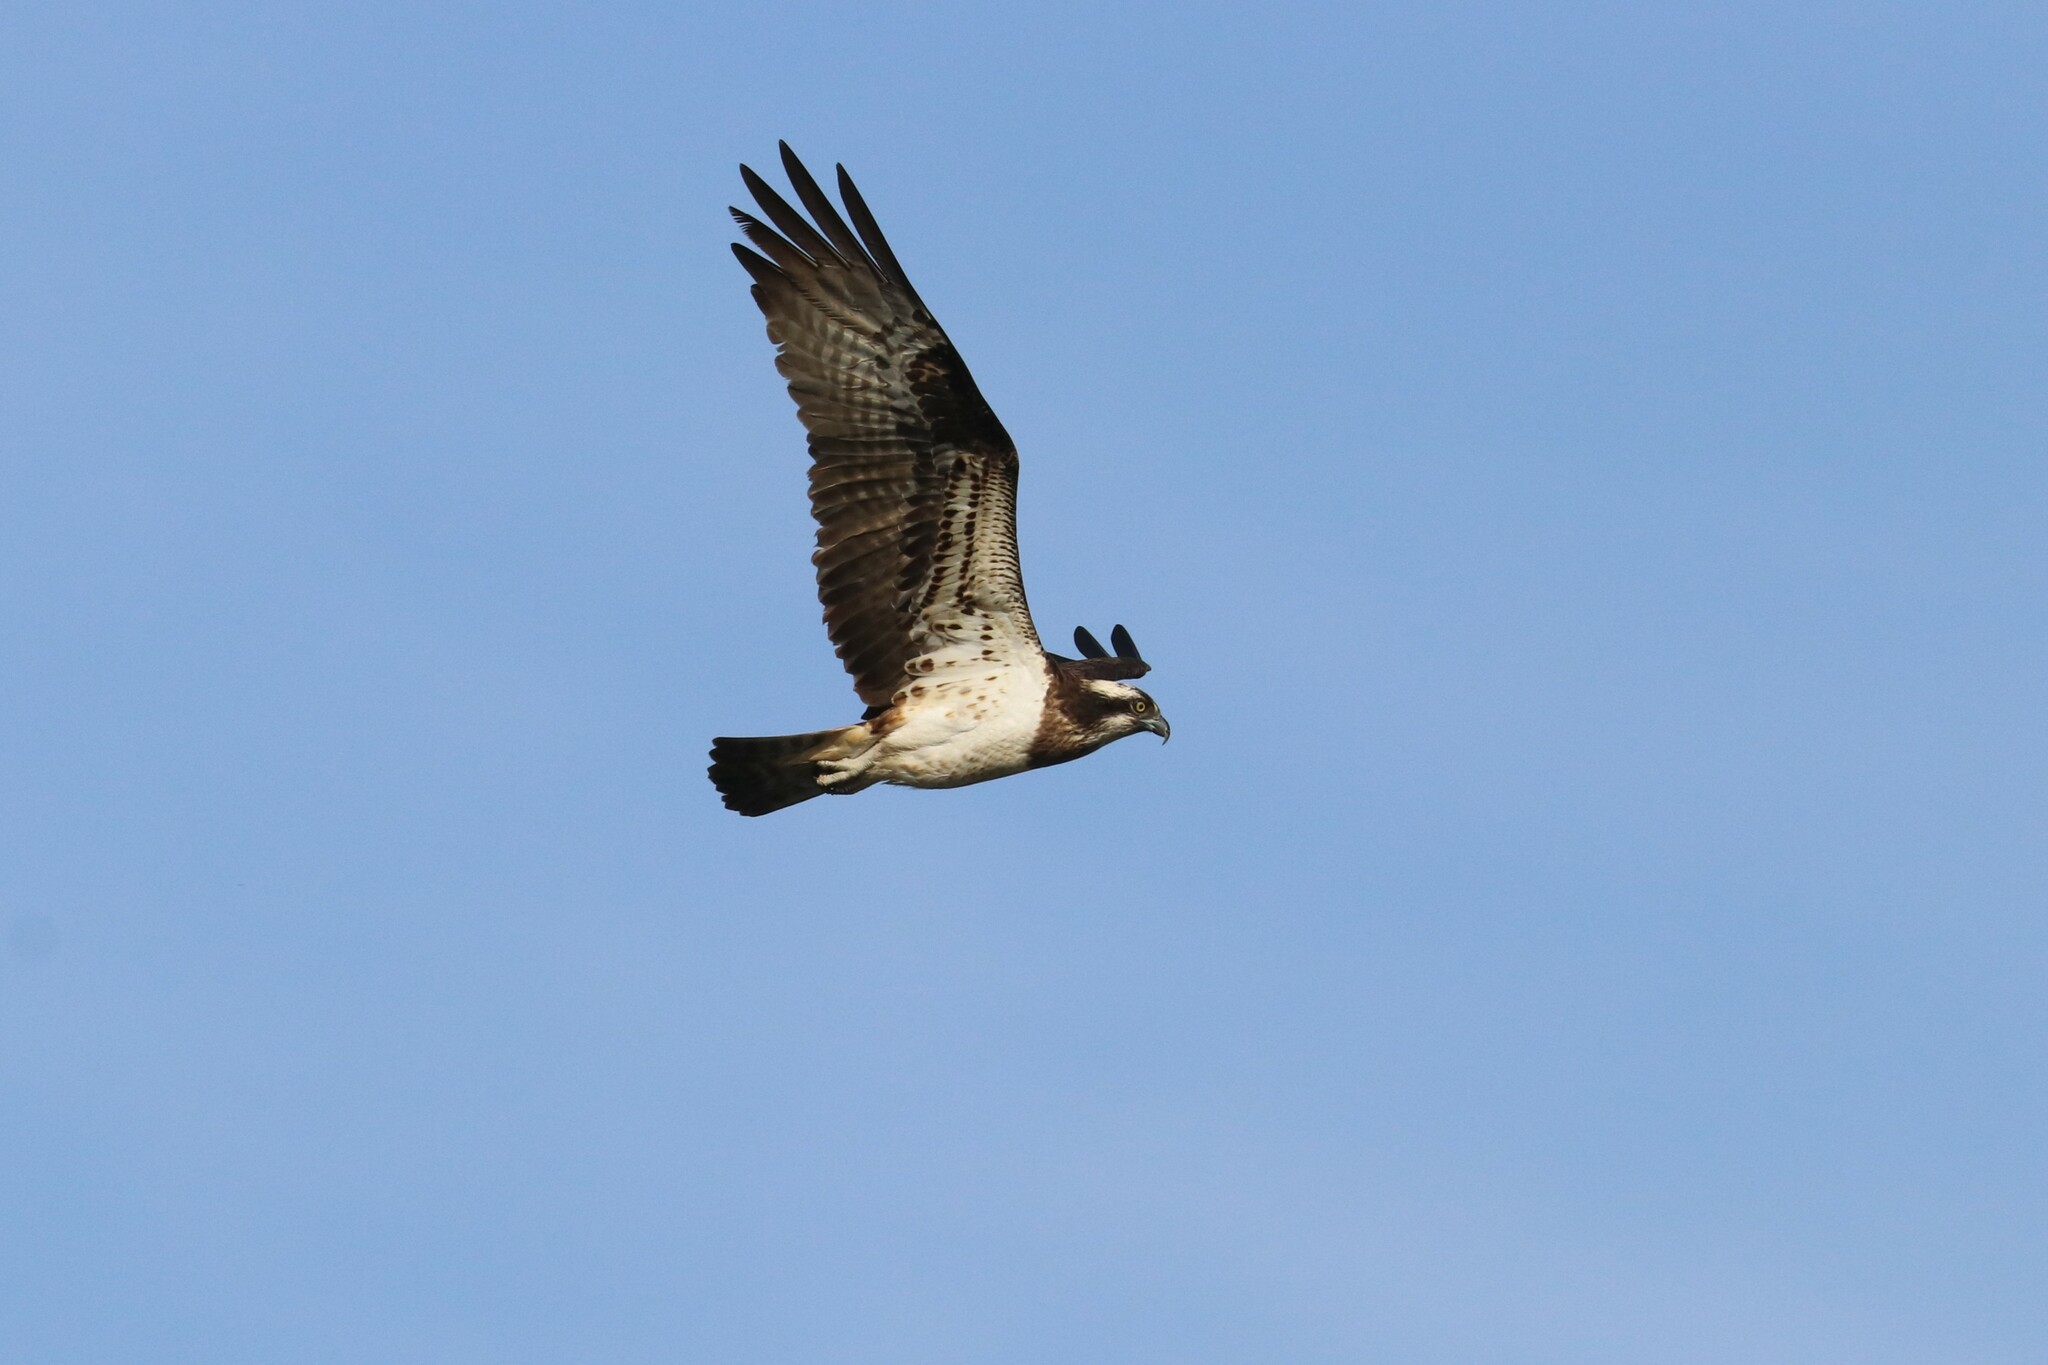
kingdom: Animalia
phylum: Chordata
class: Aves
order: Accipitriformes
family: Pandionidae
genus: Pandion
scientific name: Pandion haliaetus
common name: Osprey
